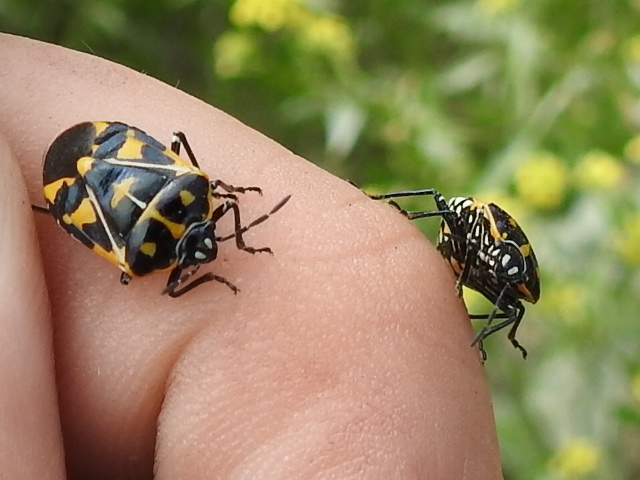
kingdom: Animalia
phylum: Arthropoda
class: Insecta
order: Hemiptera
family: Pentatomidae
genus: Murgantia
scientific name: Murgantia histrionica
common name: Harlequin bug
